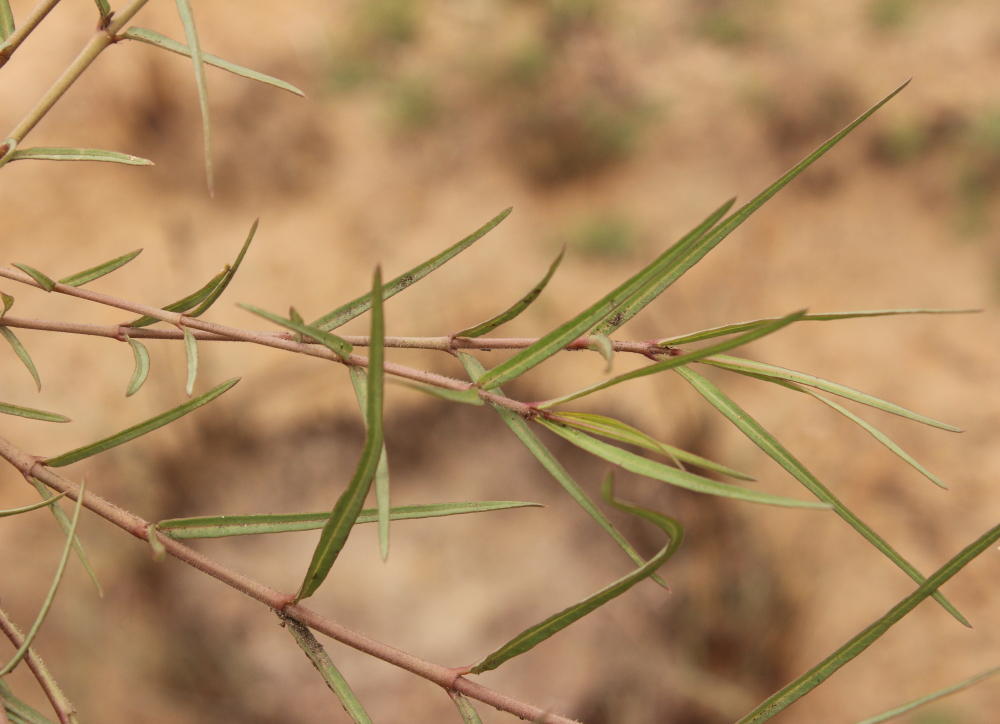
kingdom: Plantae
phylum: Tracheophyta
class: Magnoliopsida
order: Gentianales
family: Apocynaceae
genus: Asclepias
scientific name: Asclepias gibba
